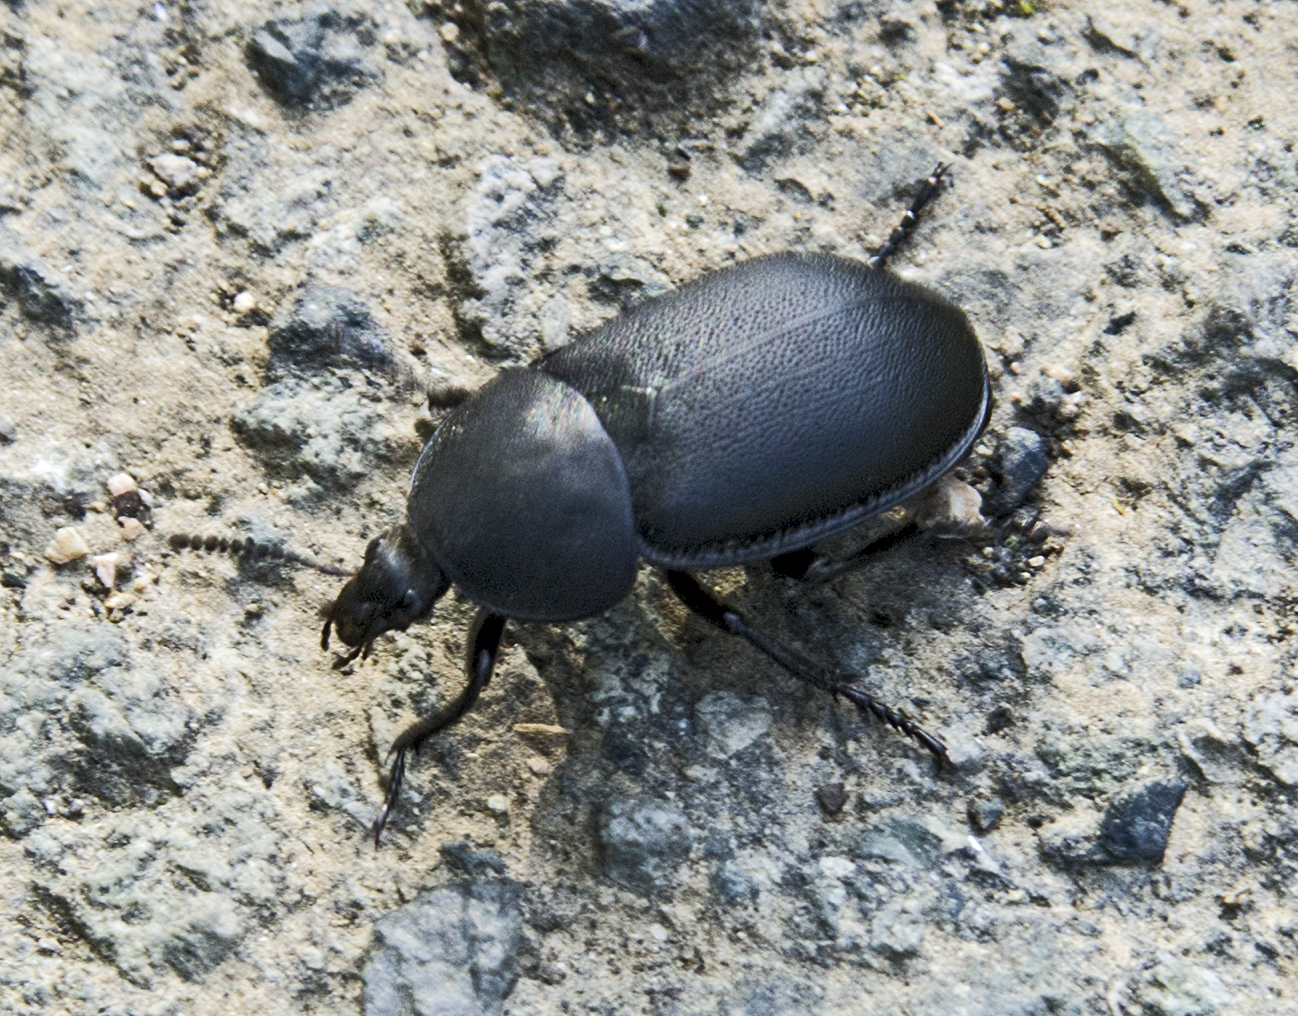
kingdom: Animalia
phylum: Arthropoda
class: Insecta
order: Coleoptera
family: Staphylinidae
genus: Silpha
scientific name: Silpha laevigata
